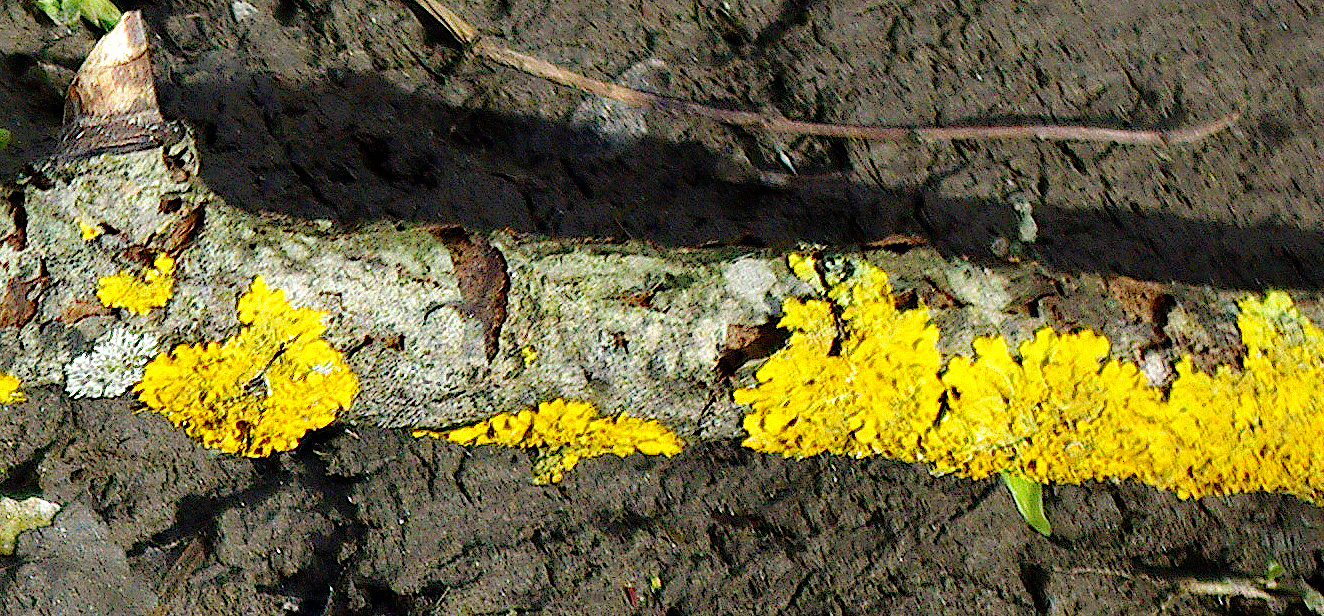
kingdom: Fungi
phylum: Ascomycota
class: Lecanoromycetes
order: Teloschistales
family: Teloschistaceae
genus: Xanthoria
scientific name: Xanthoria parietina
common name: Common orange lichen
